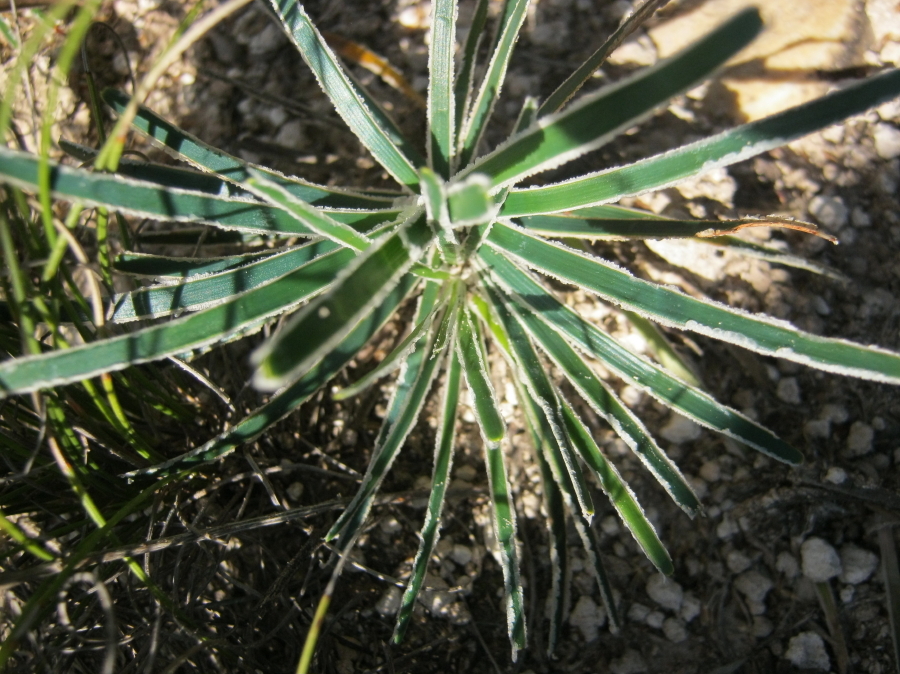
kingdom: Plantae
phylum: Tracheophyta
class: Liliopsida
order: Poales
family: Cyperaceae
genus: Ficinia
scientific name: Ficinia truncata
